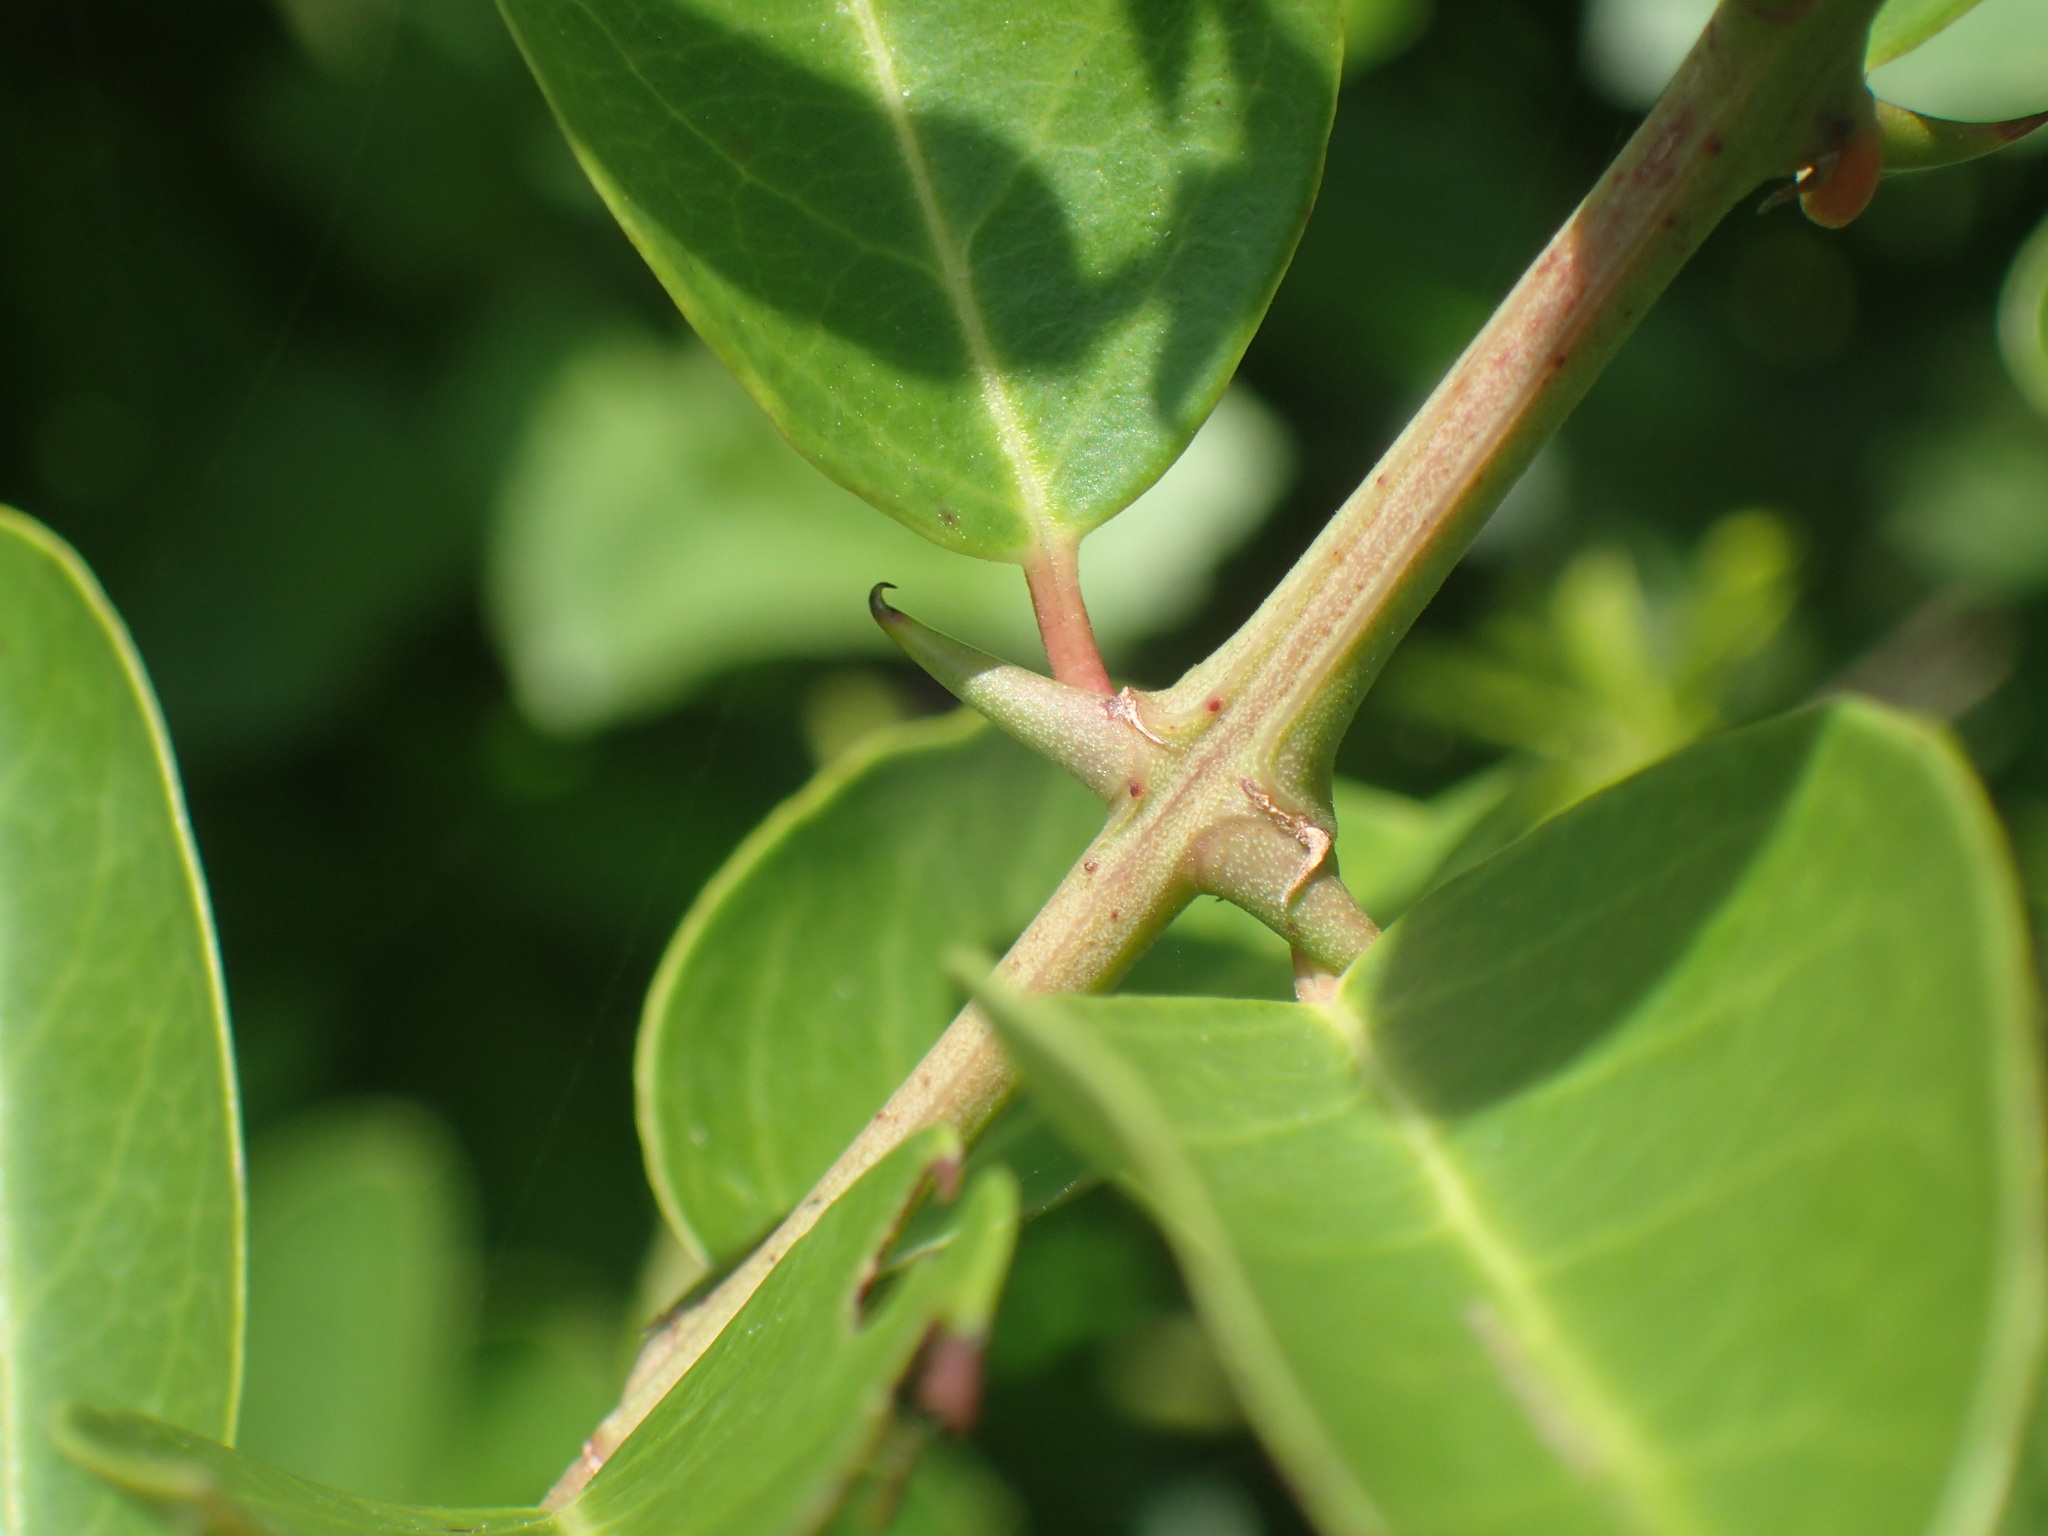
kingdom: Plantae
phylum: Tracheophyta
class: Magnoliopsida
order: Rosales
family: Rhamnaceae
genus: Scutia
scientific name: Scutia myrtina
